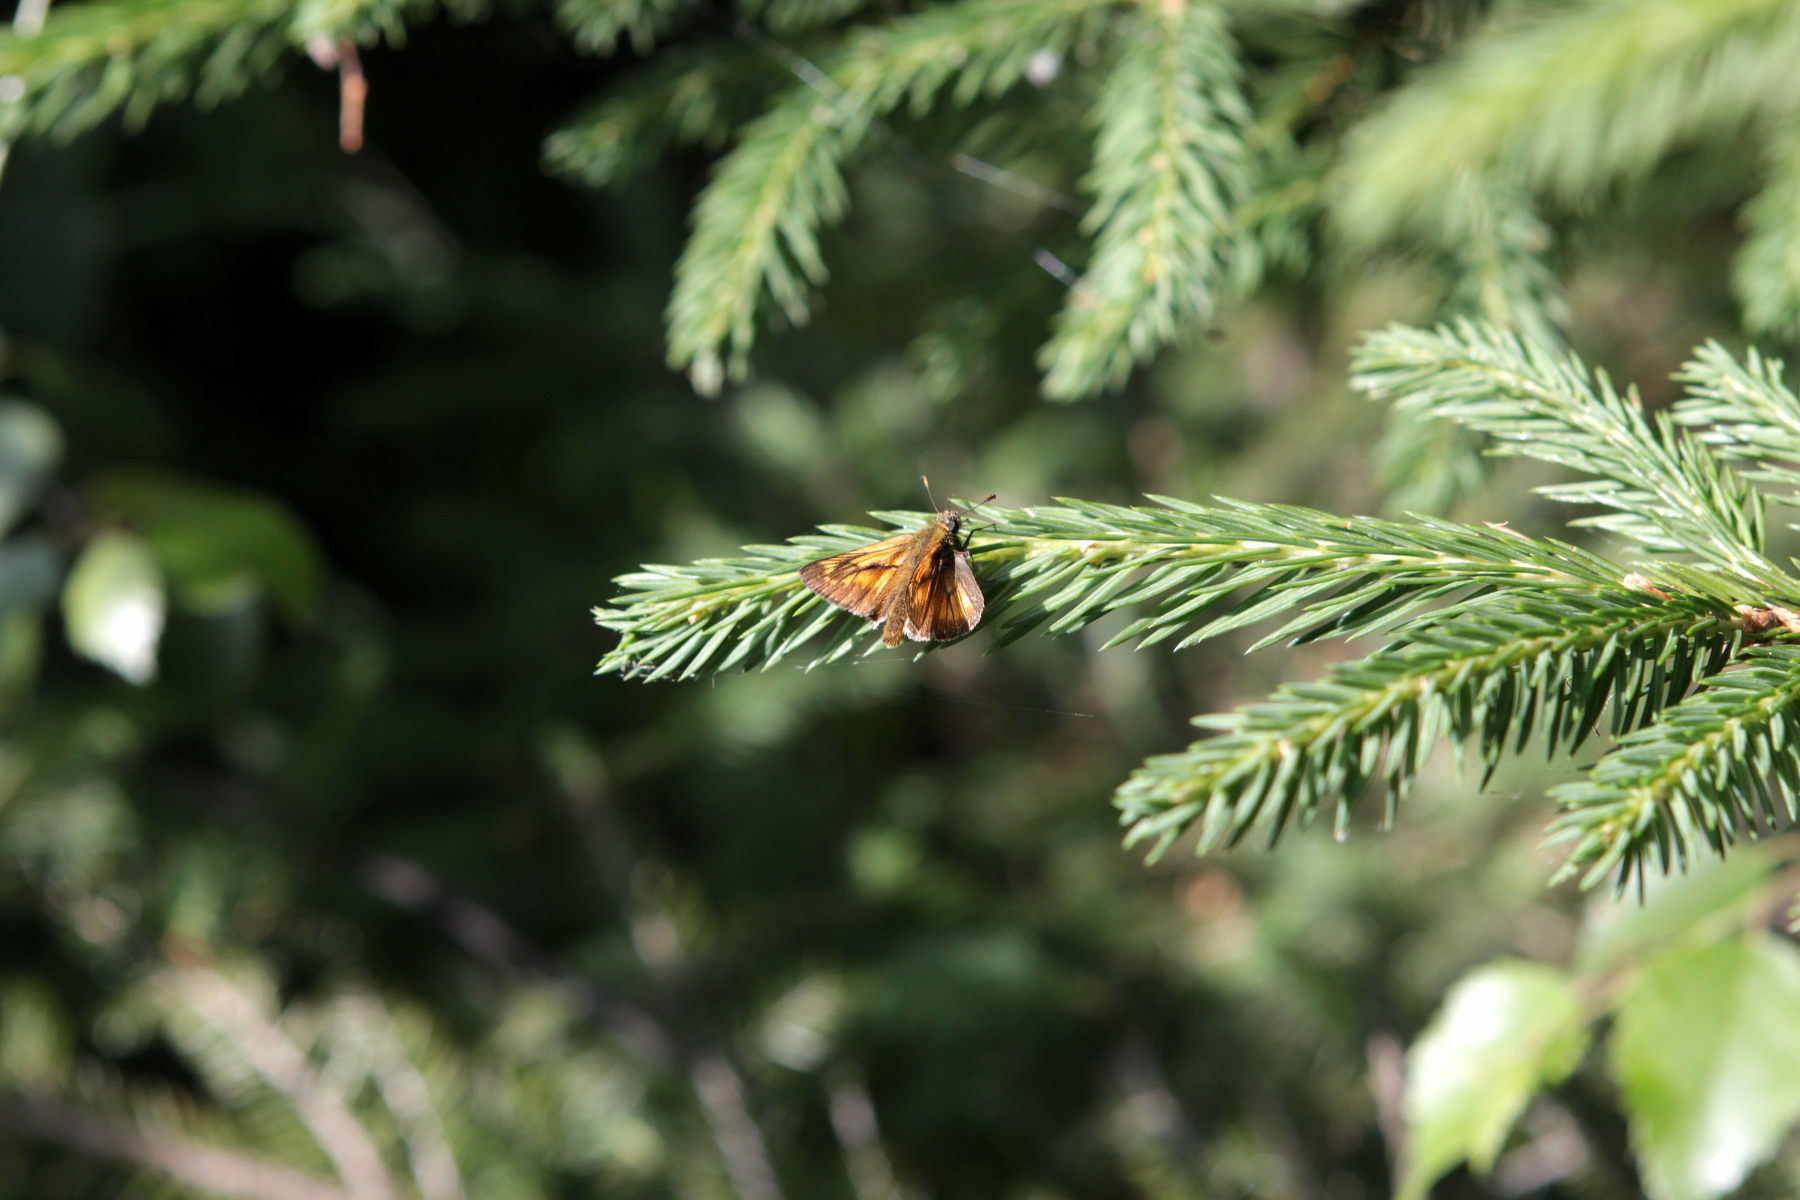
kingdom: Animalia
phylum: Arthropoda
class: Insecta
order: Lepidoptera
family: Hesperiidae
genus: Ochlodes
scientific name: Ochlodes venata
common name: Large skipper
